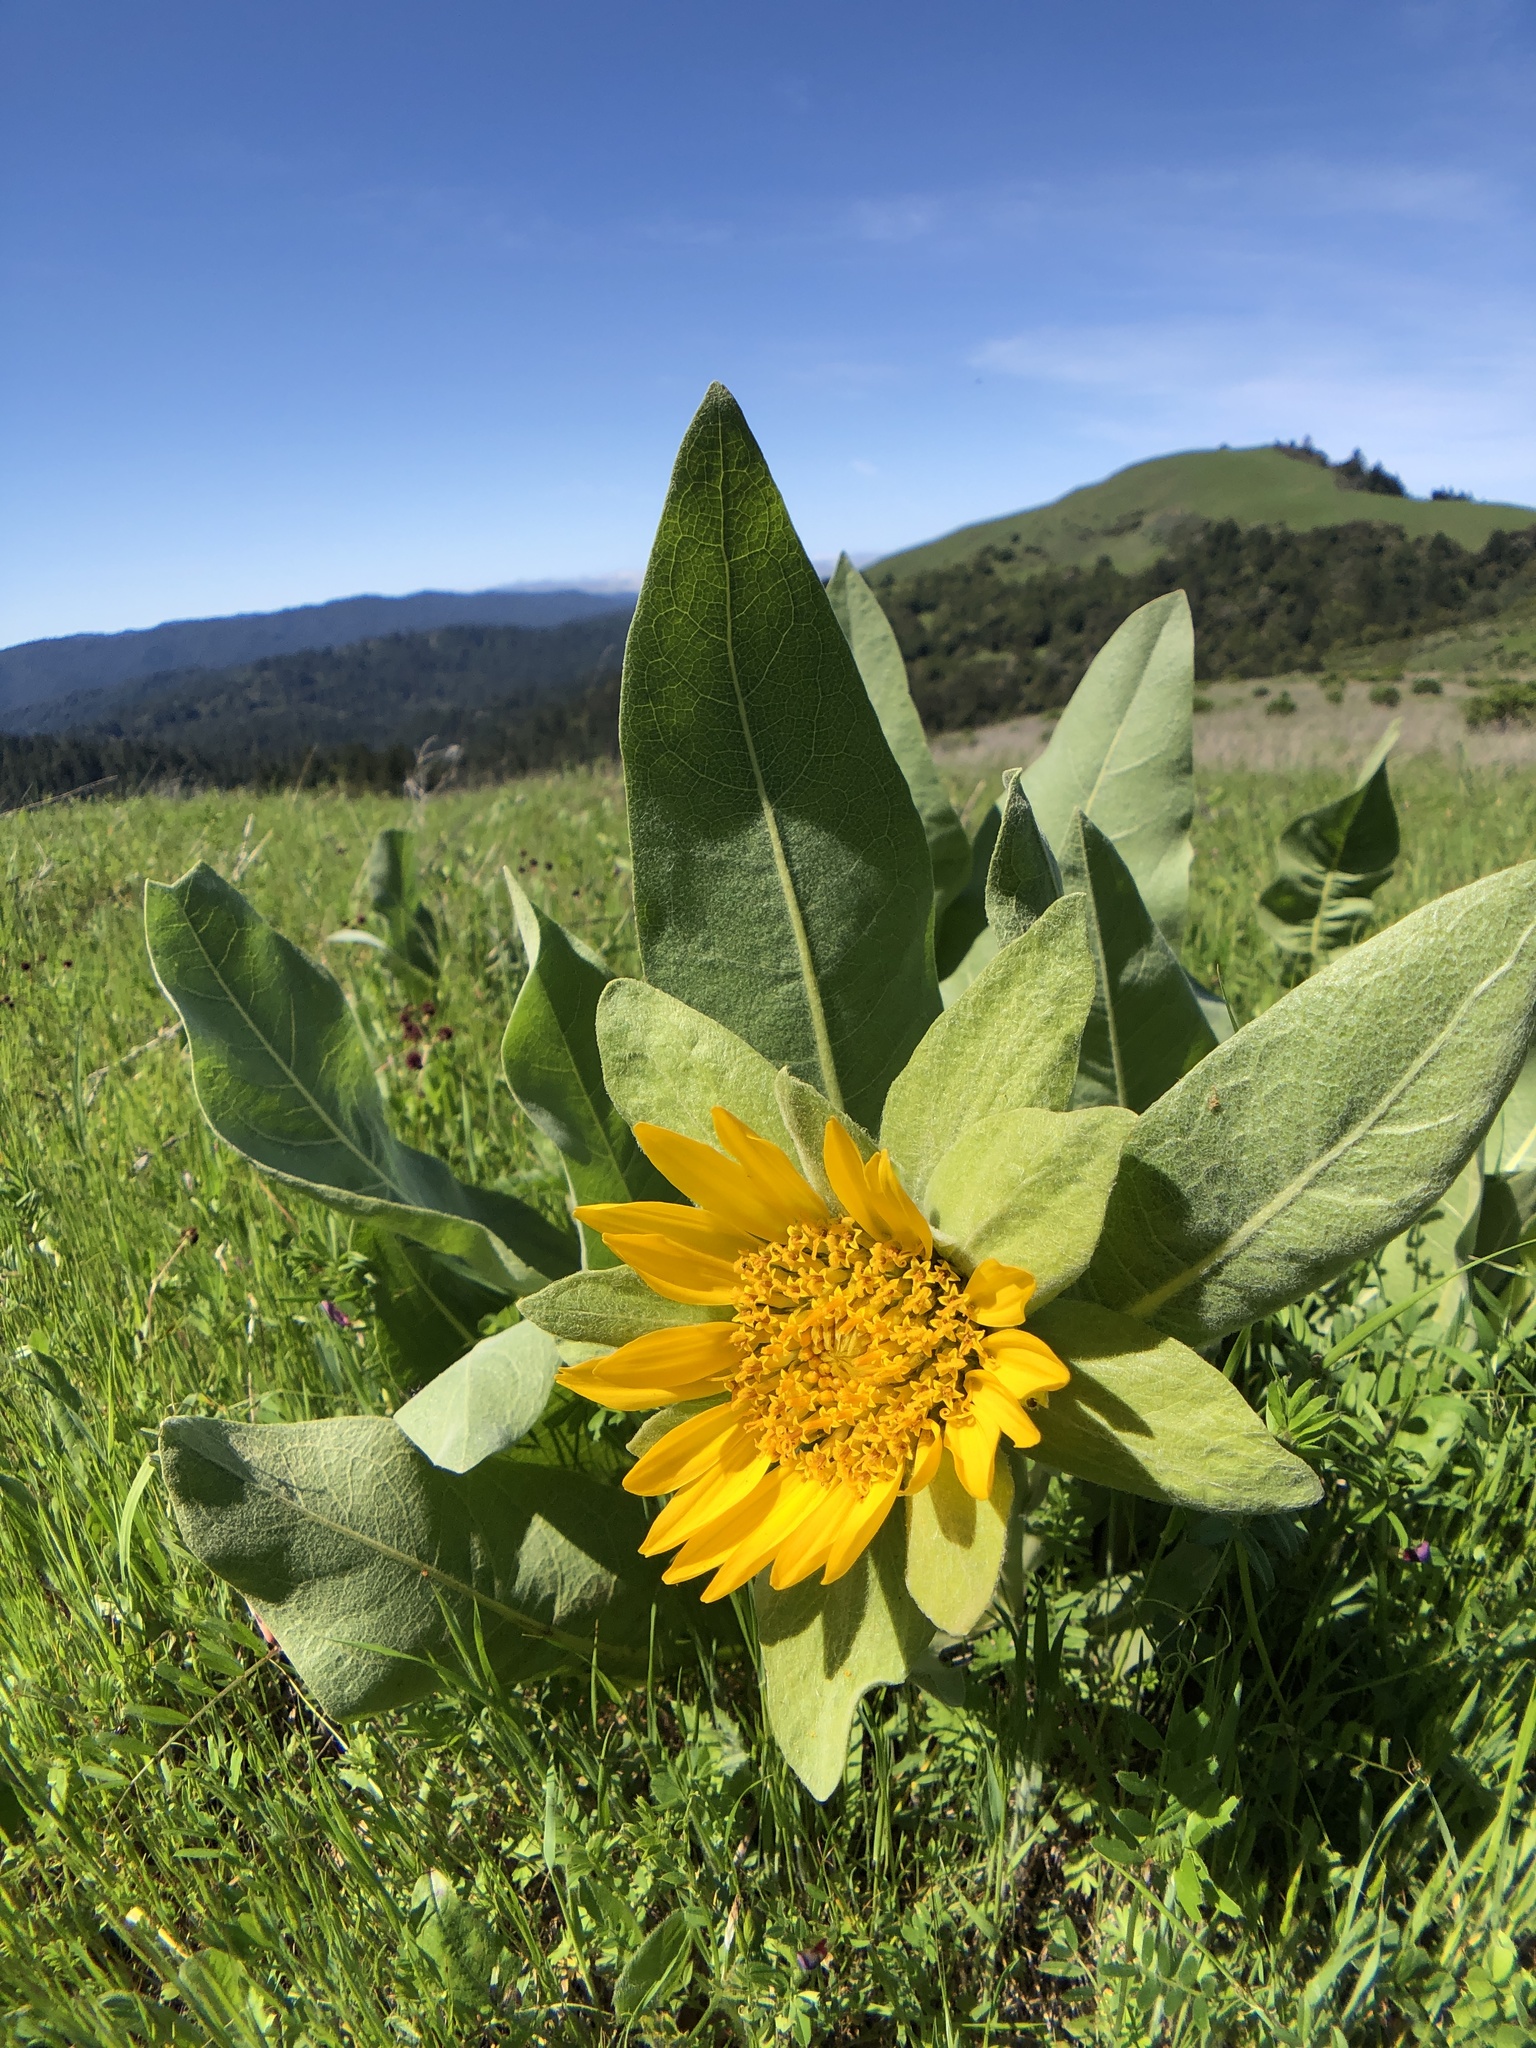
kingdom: Plantae
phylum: Tracheophyta
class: Magnoliopsida
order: Asterales
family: Asteraceae
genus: Wyethia
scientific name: Wyethia helenioides
